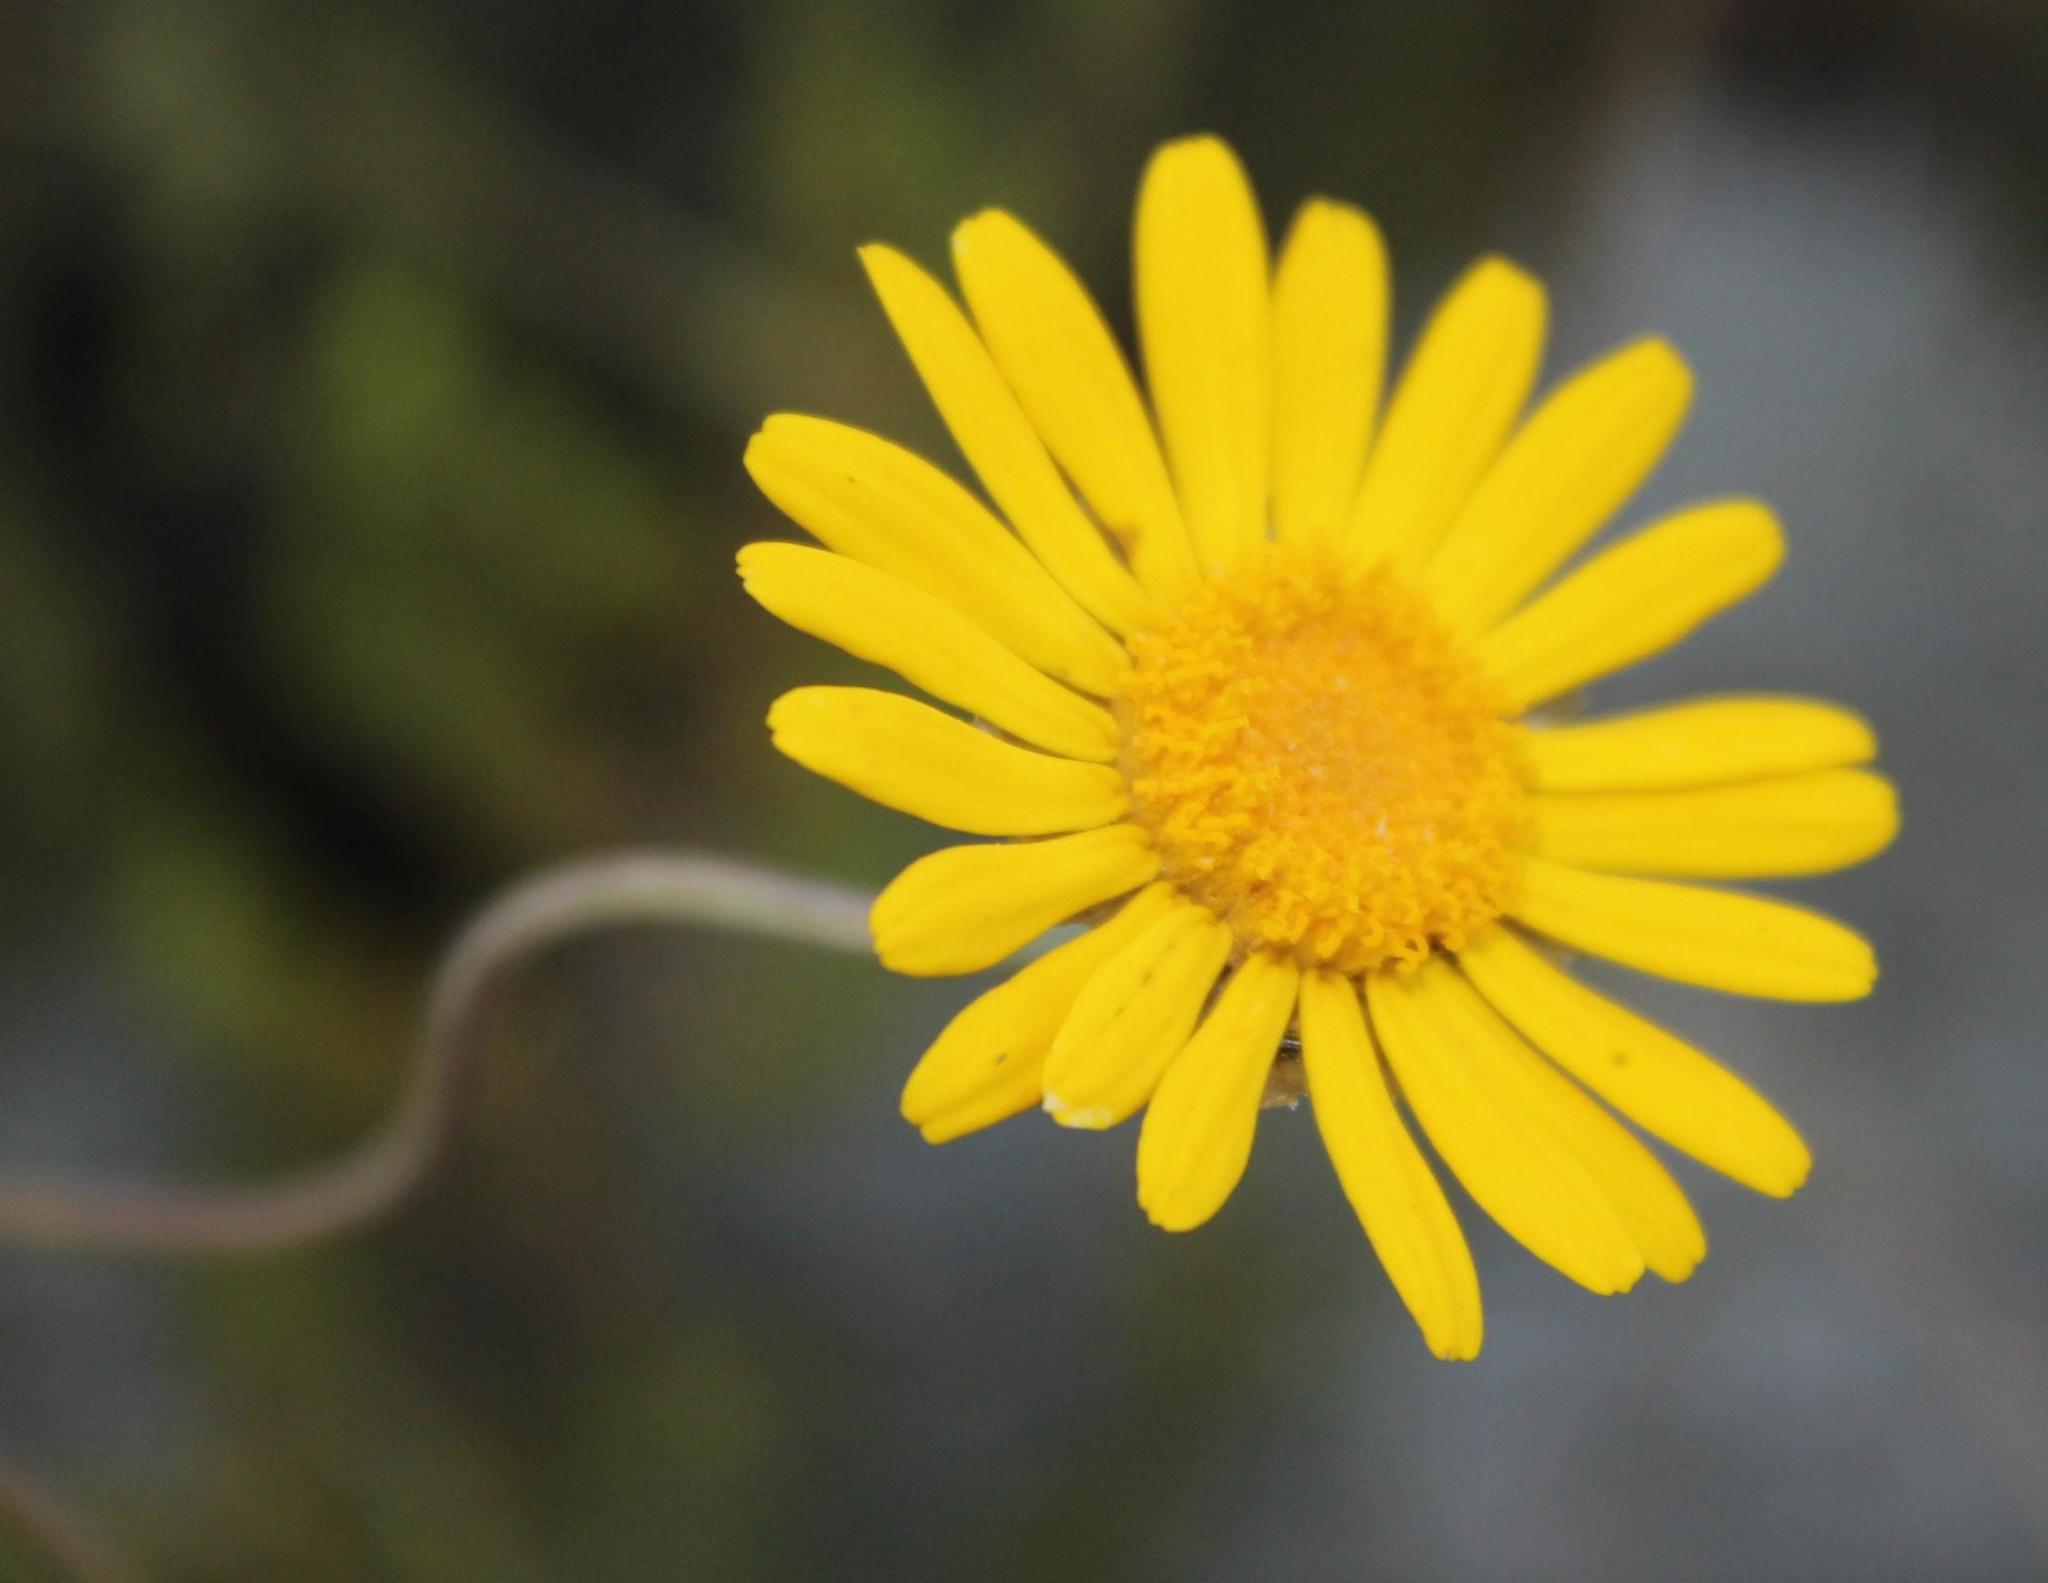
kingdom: Plantae
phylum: Tracheophyta
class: Magnoliopsida
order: Asterales
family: Asteraceae
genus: Ursinia
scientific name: Ursinia sericea
